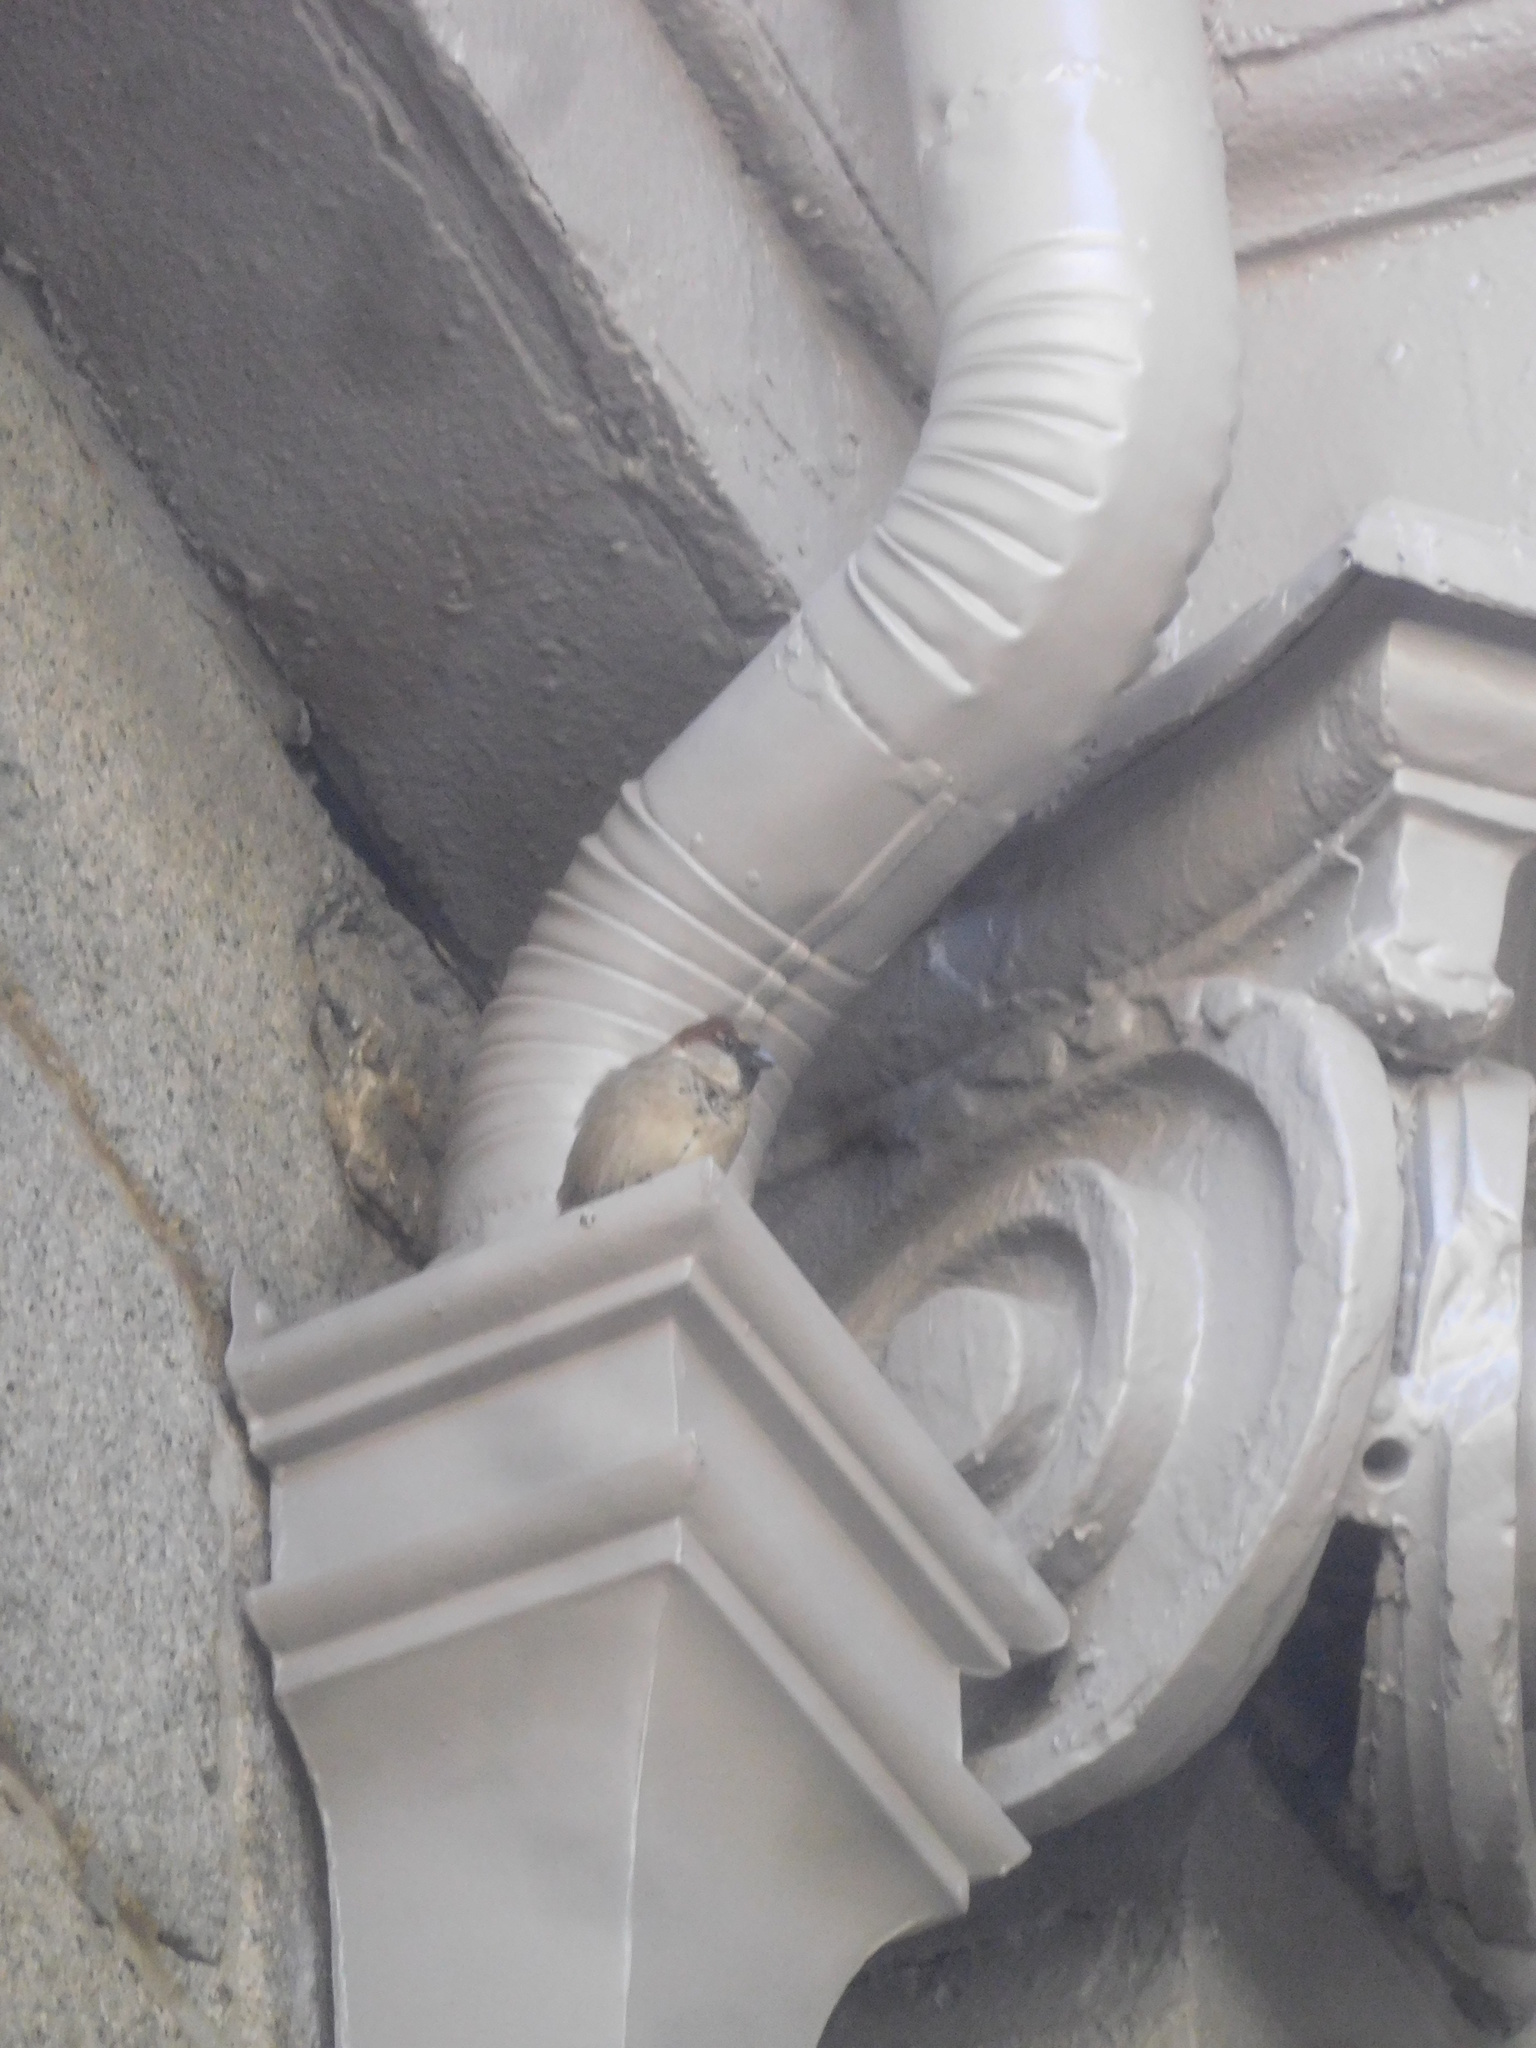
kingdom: Animalia
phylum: Chordata
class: Aves
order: Passeriformes
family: Passeridae
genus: Passer
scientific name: Passer domesticus
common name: House sparrow
